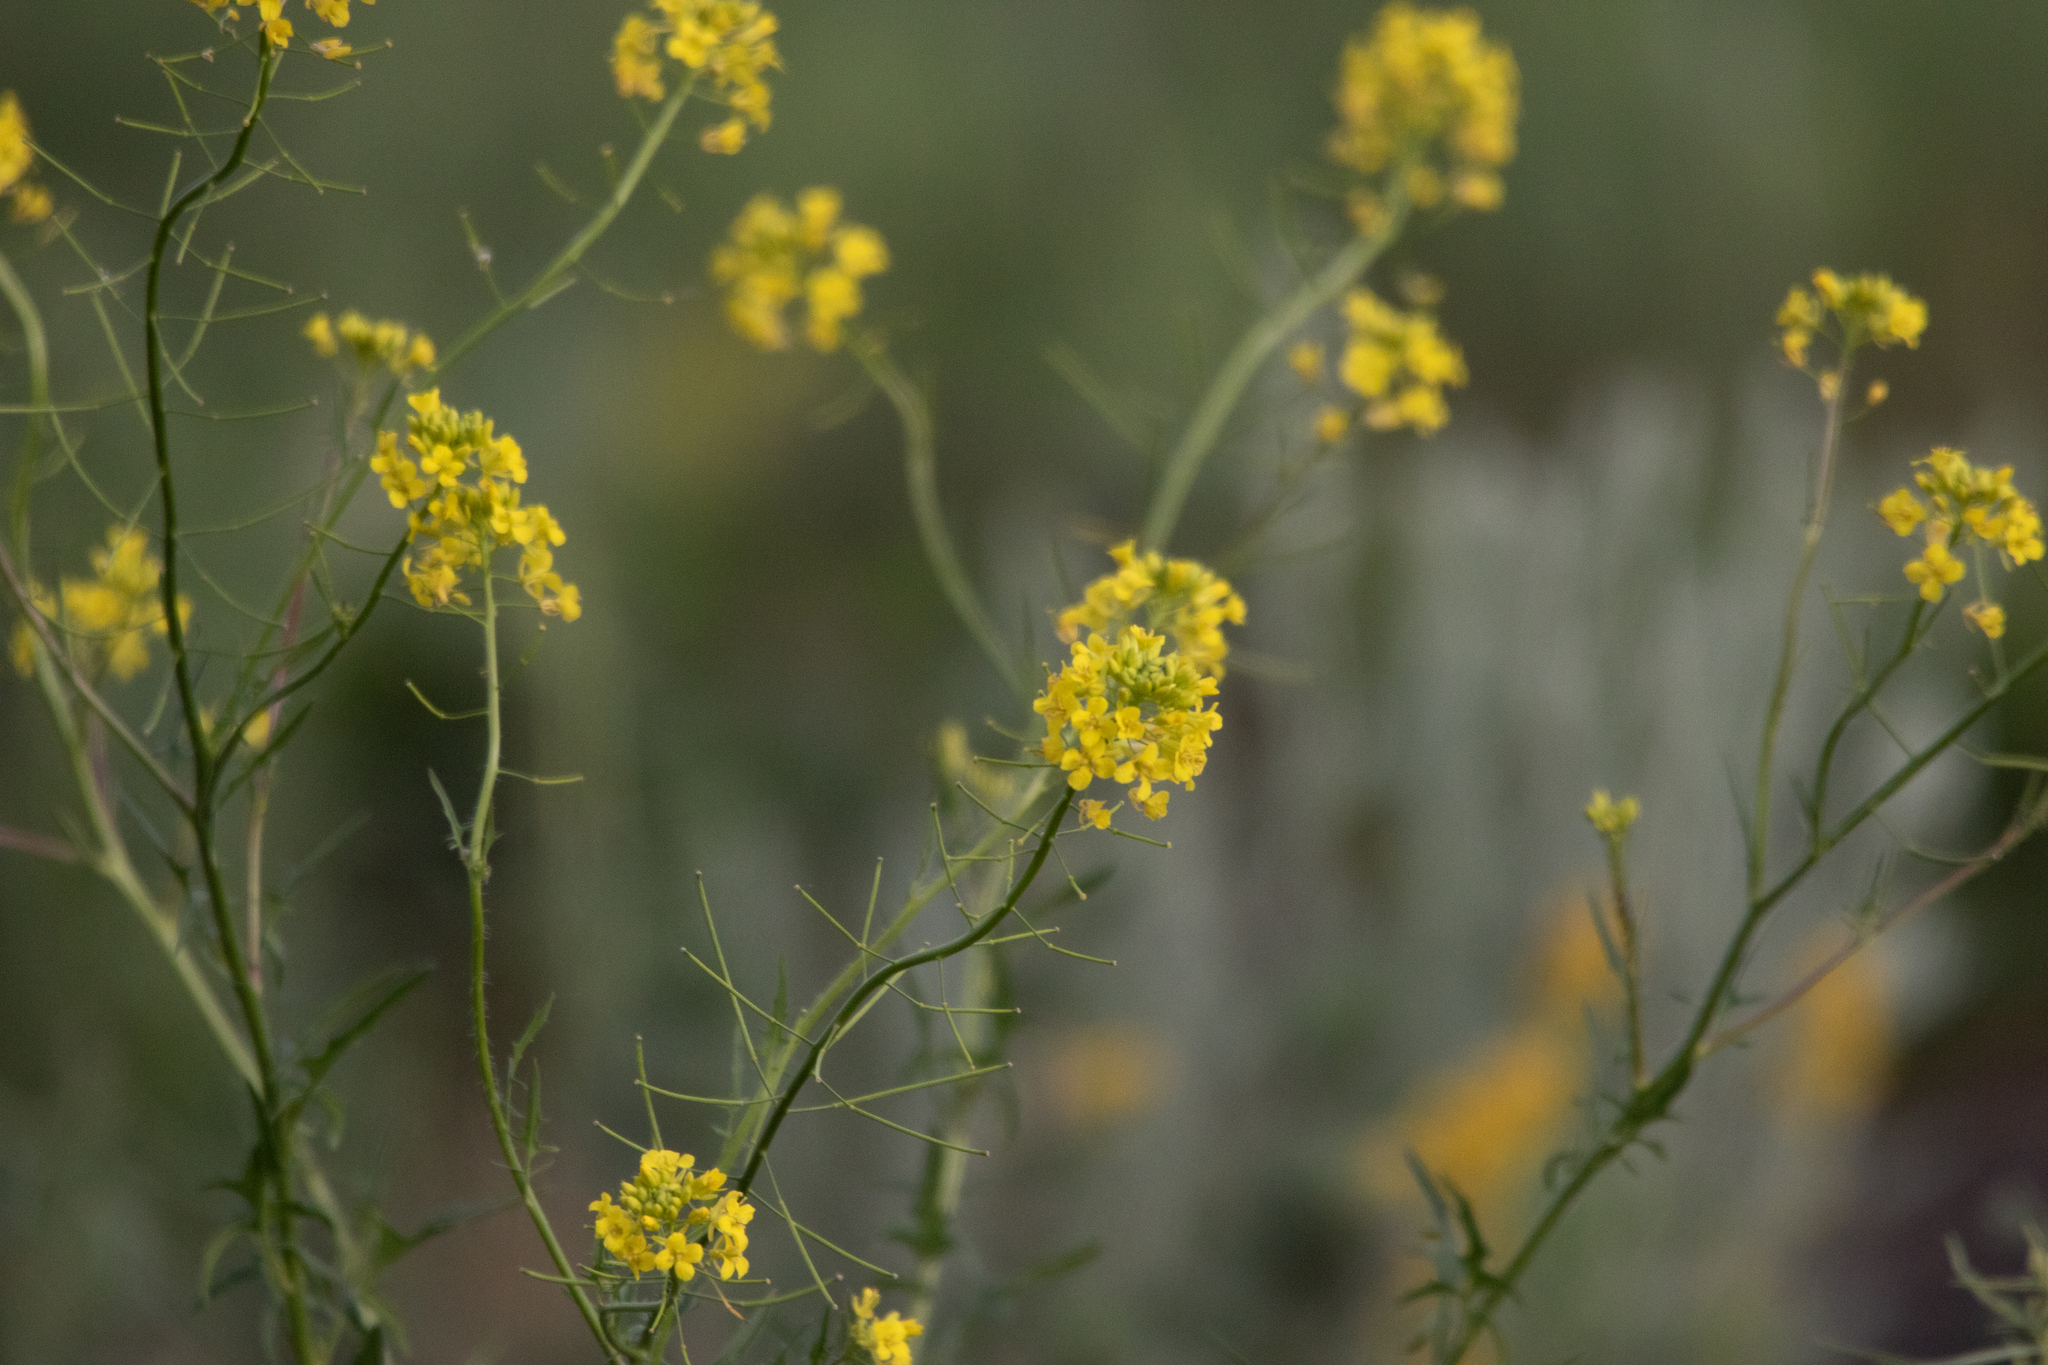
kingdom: Plantae
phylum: Tracheophyta
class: Magnoliopsida
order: Brassicales
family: Brassicaceae
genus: Sisymbrium
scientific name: Sisymbrium loeselii
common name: False london-rocket
